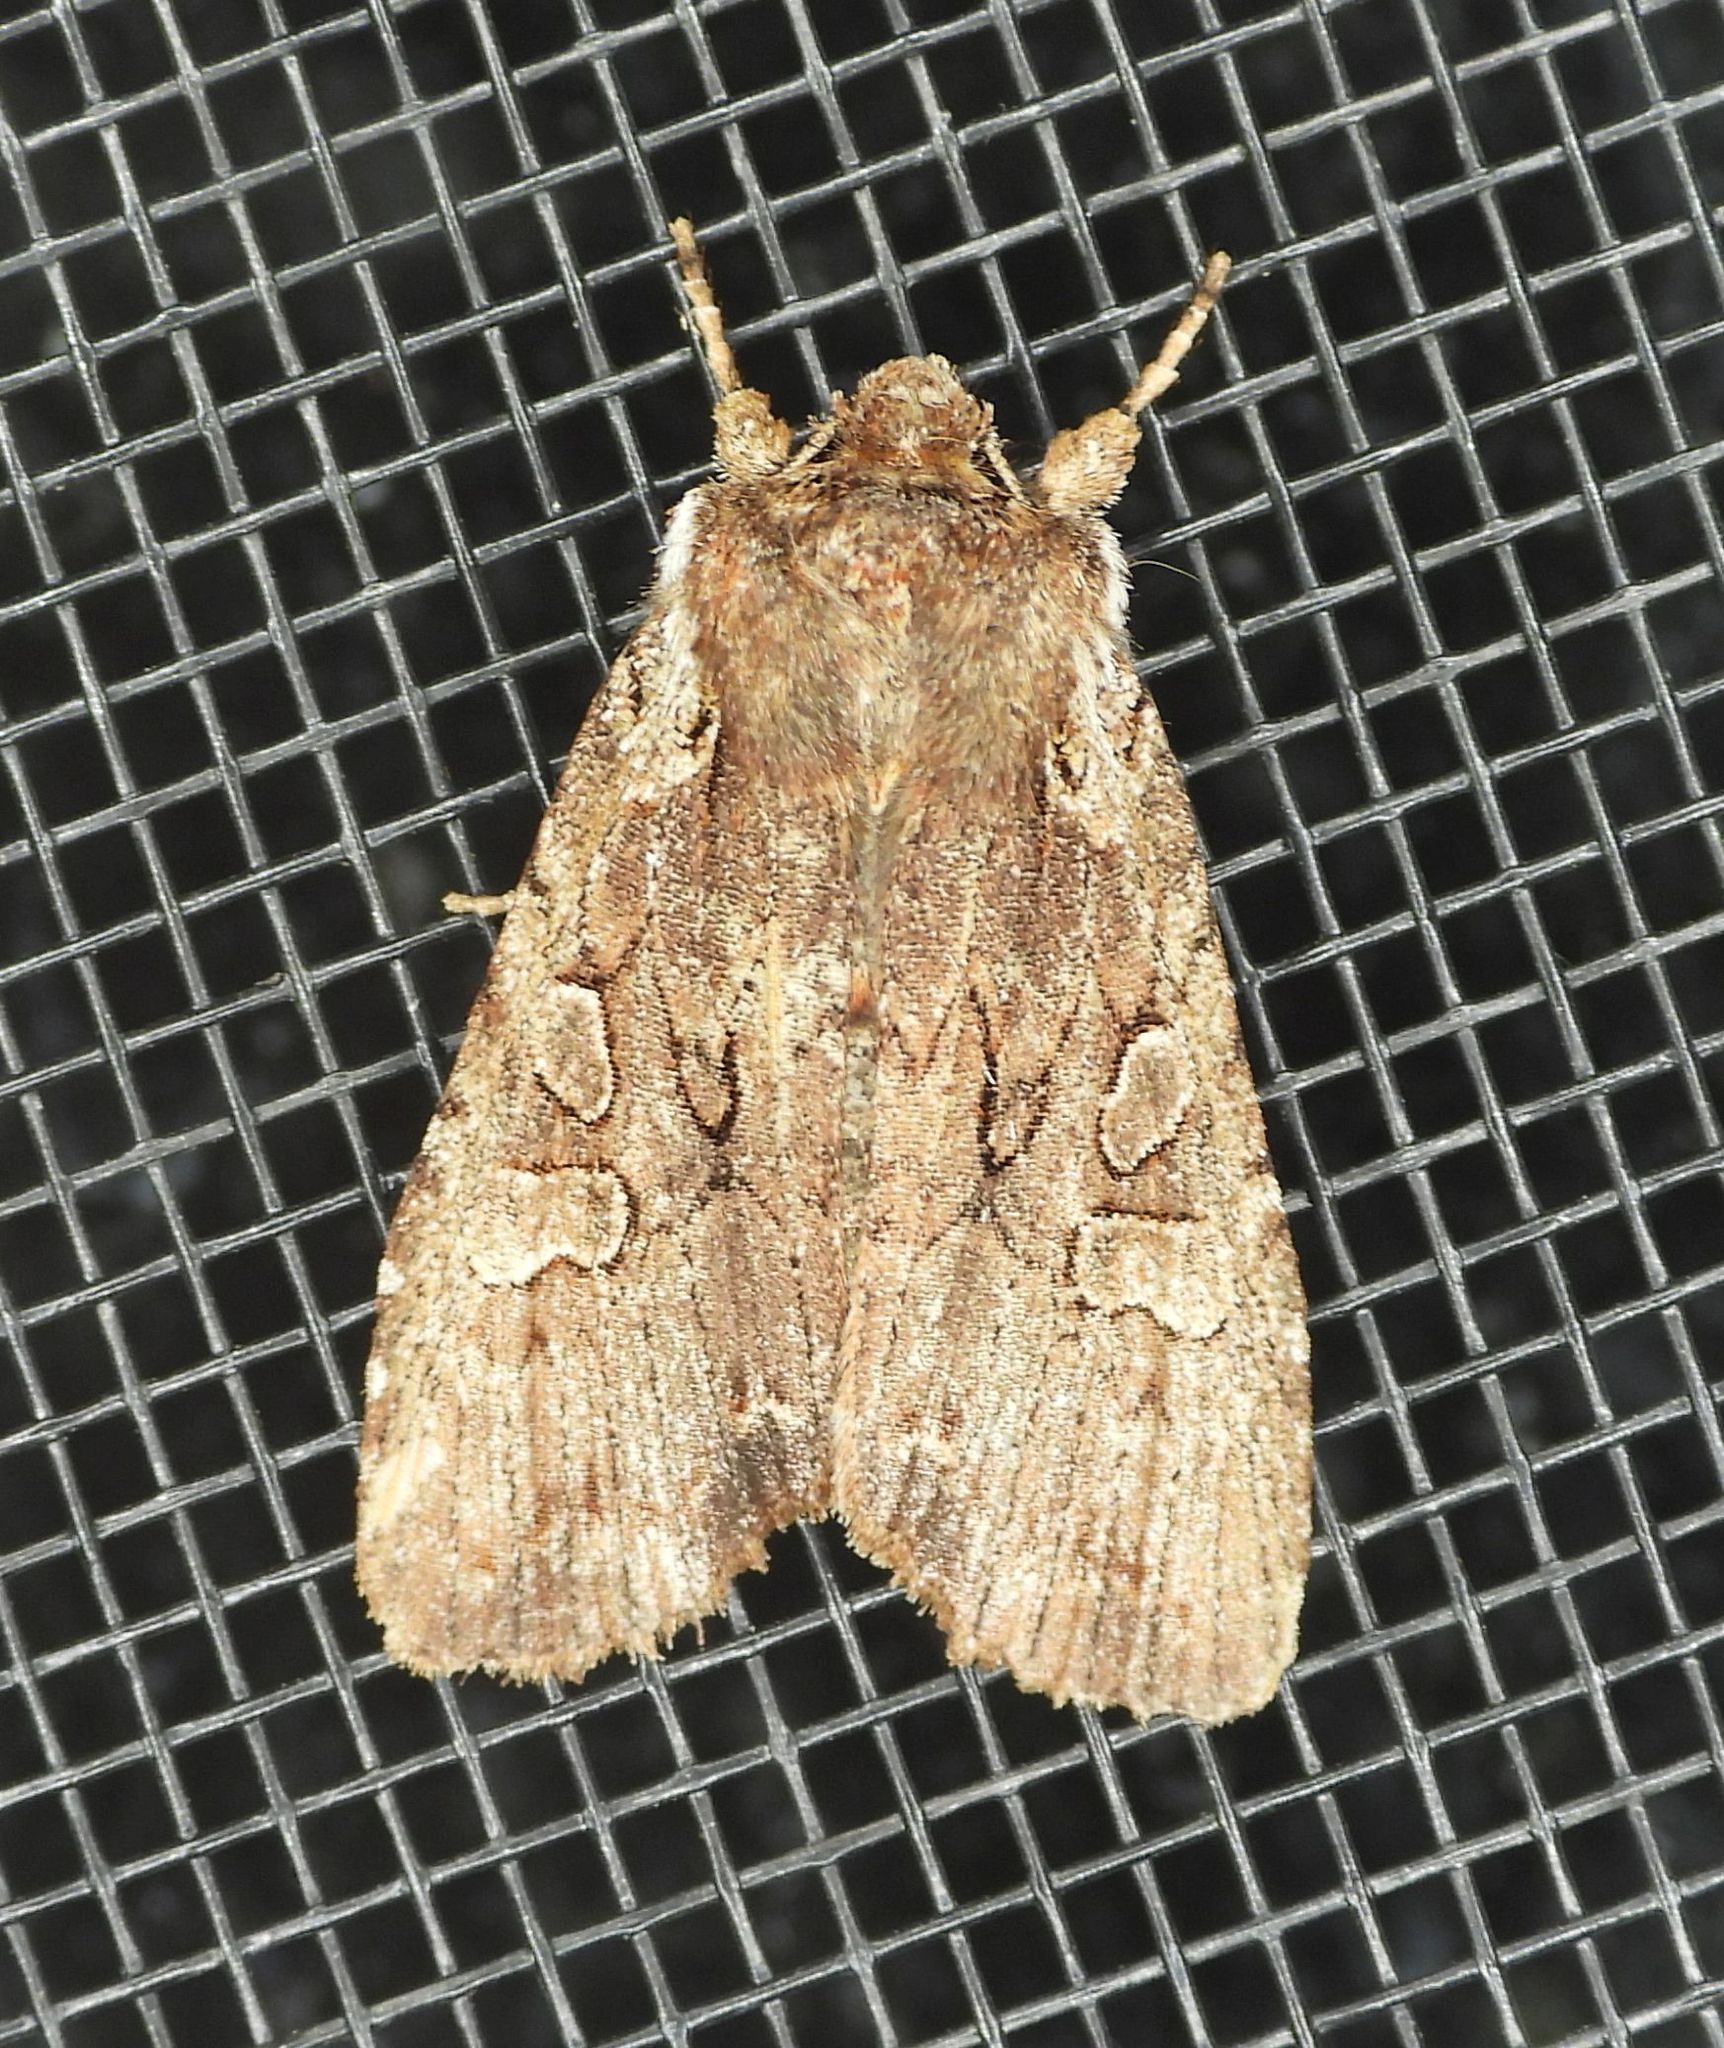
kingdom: Animalia
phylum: Arthropoda
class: Insecta
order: Lepidoptera
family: Noctuidae
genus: Lithophane
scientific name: Lithophane oriunda
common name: Immigrant pinion moth
